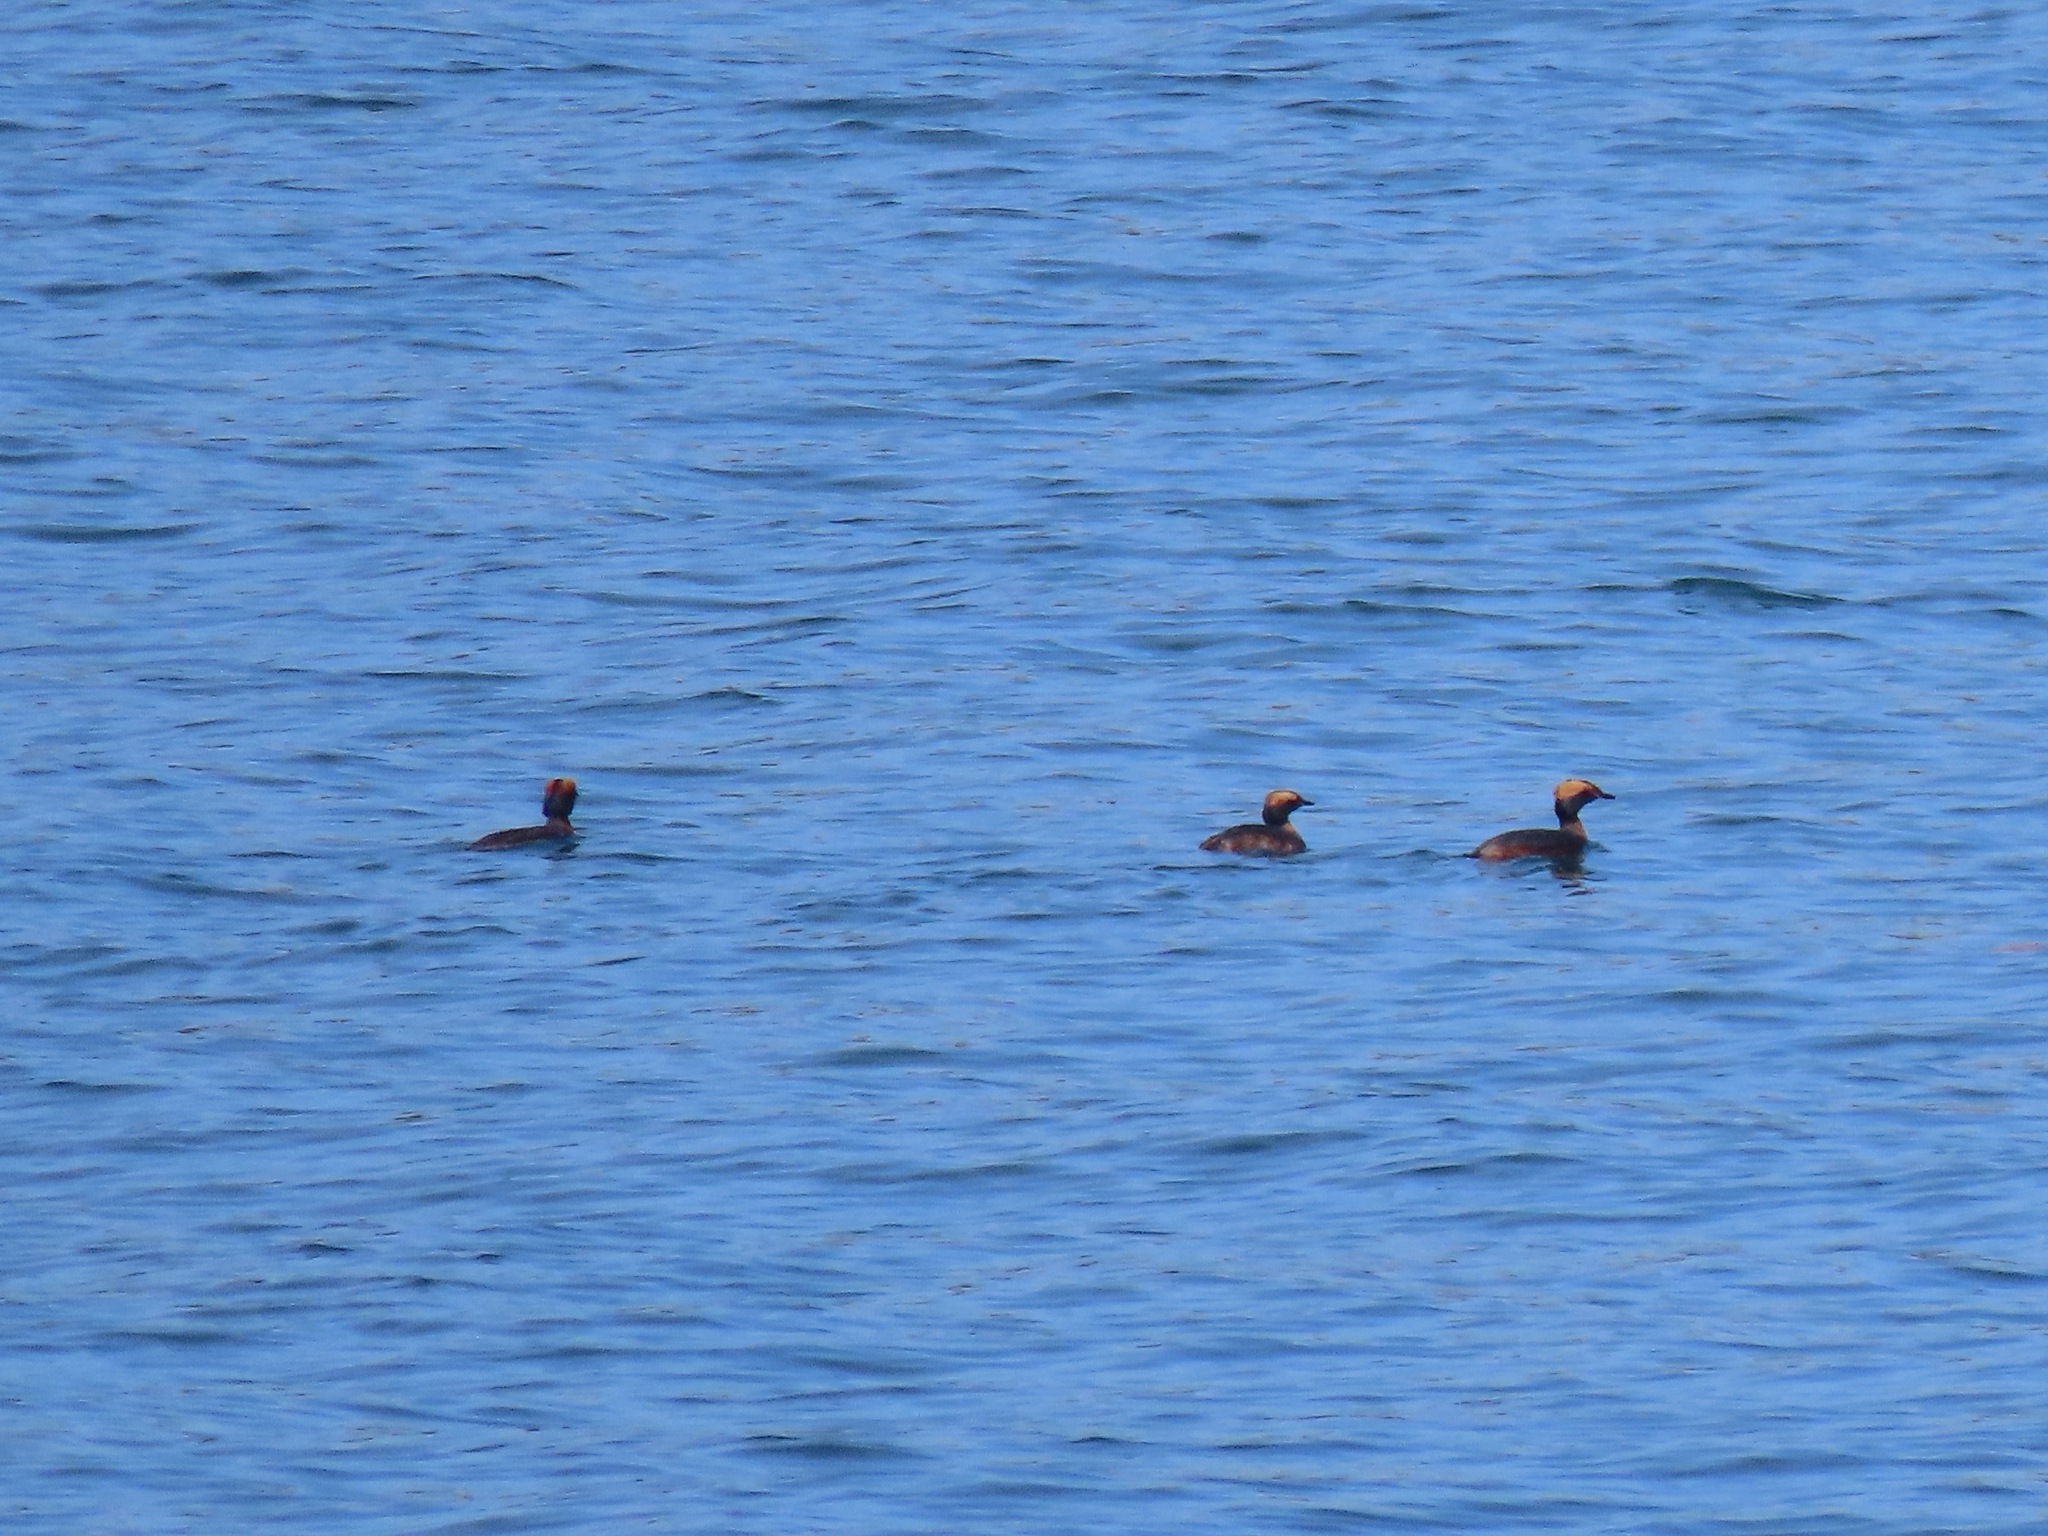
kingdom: Animalia
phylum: Chordata
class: Aves
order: Podicipediformes
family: Podicipedidae
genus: Podiceps
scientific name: Podiceps auritus
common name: Horned grebe
